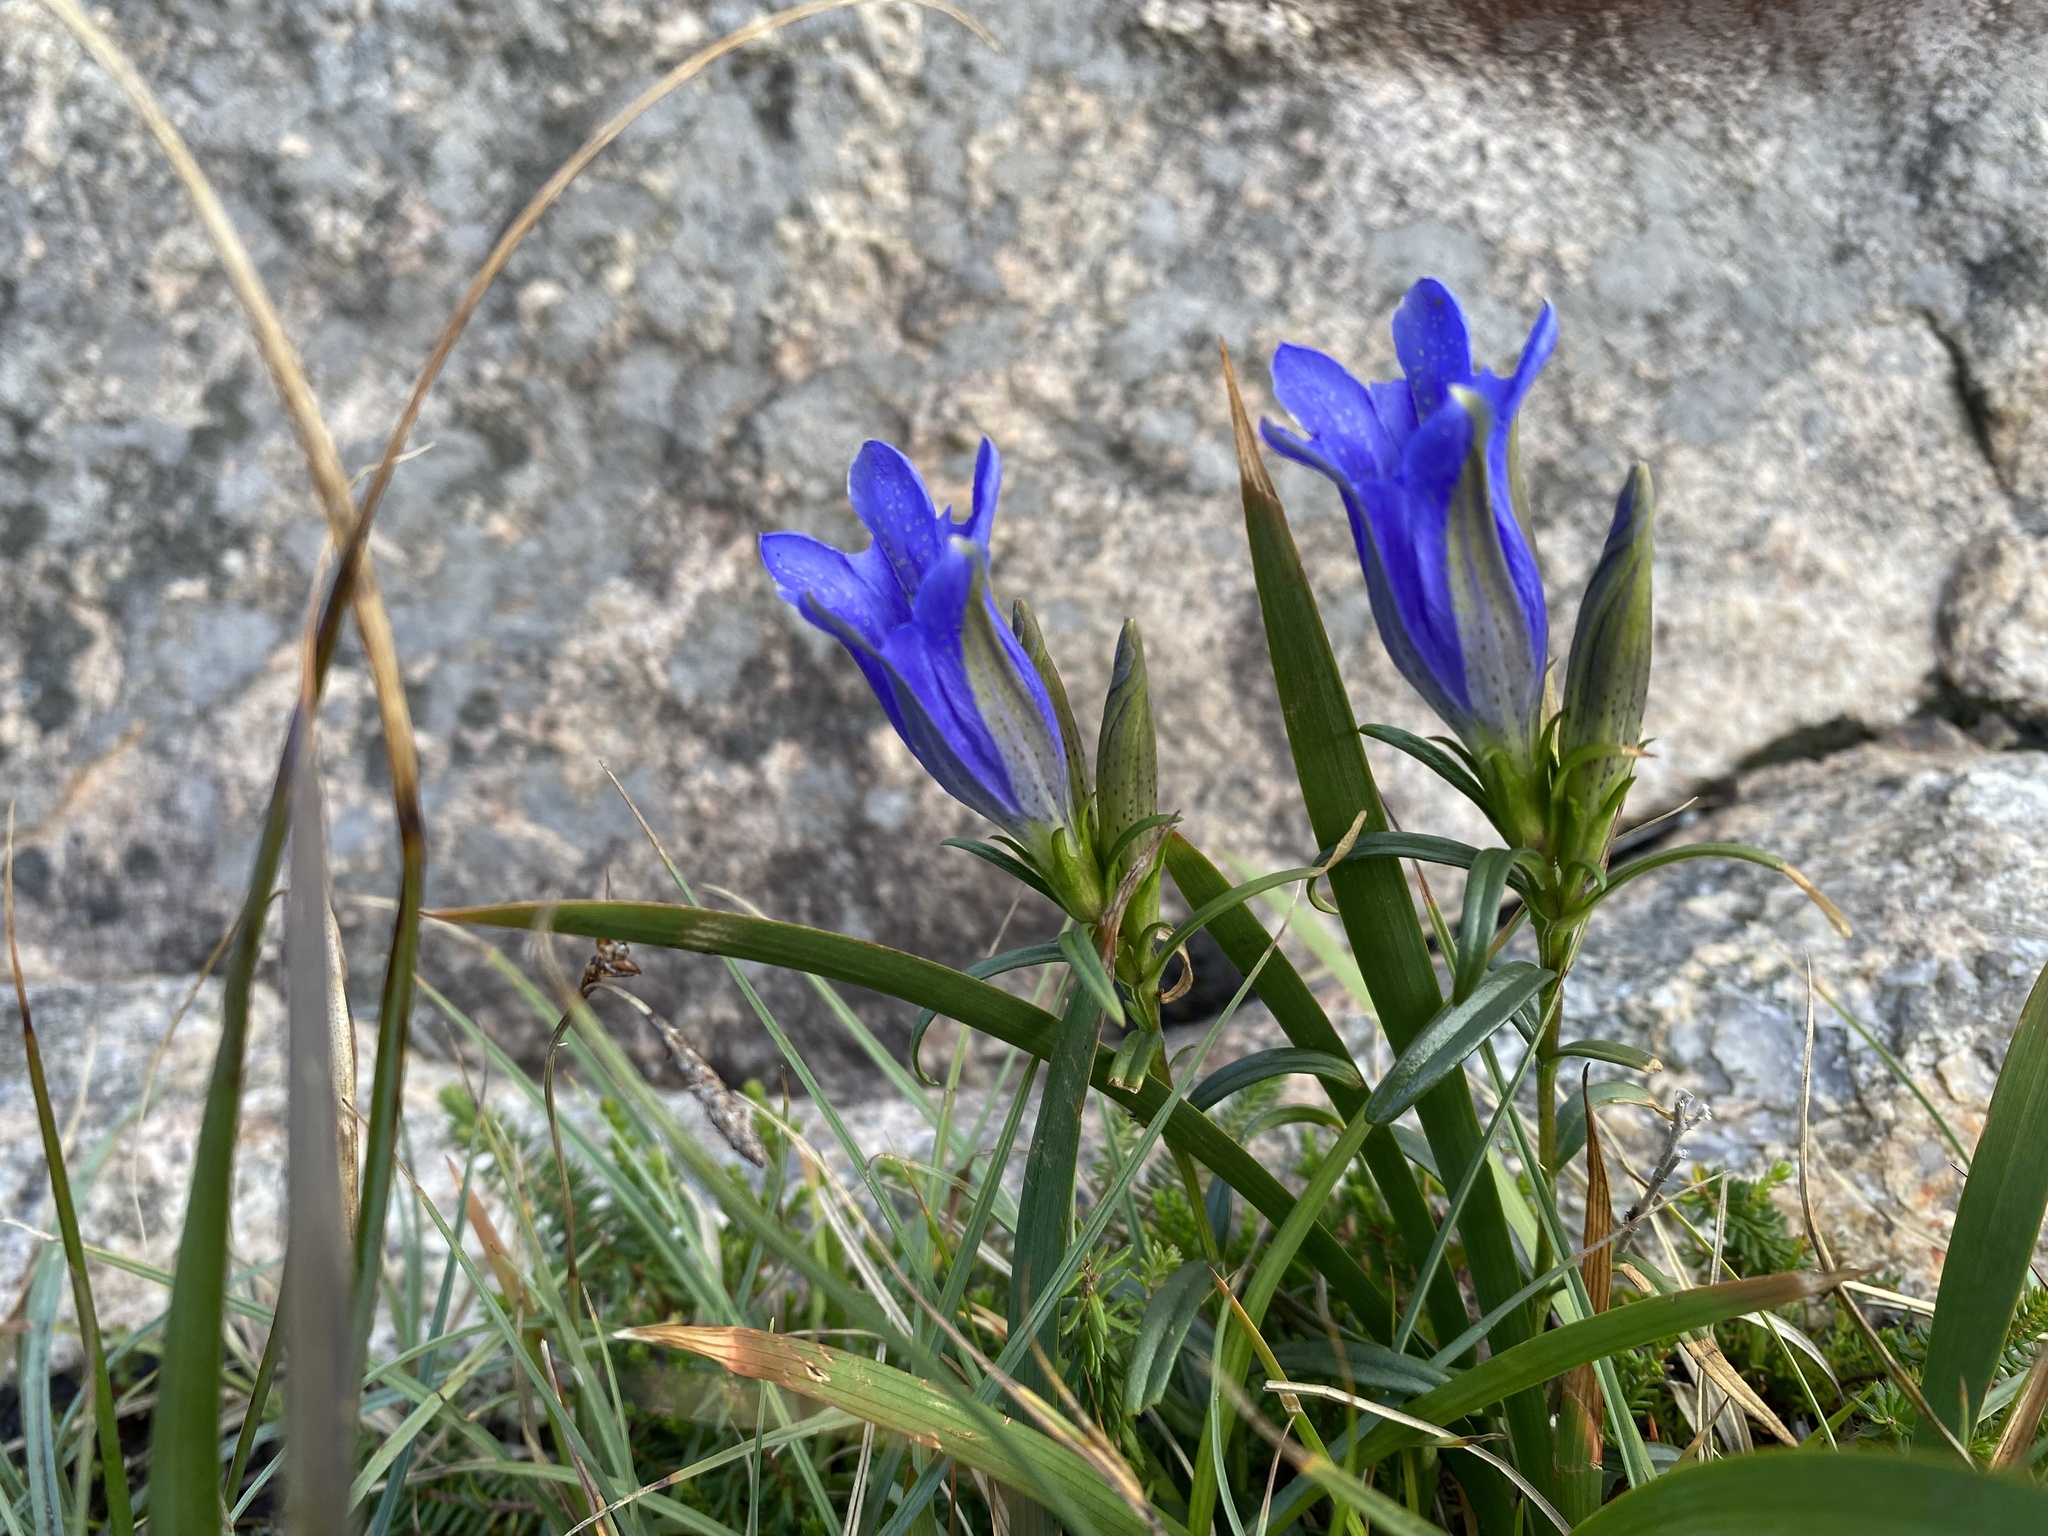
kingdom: Plantae
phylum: Tracheophyta
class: Magnoliopsida
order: Gentianales
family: Gentianaceae
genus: Gentiana
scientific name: Gentiana pneumonanthe
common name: Marsh gentian
